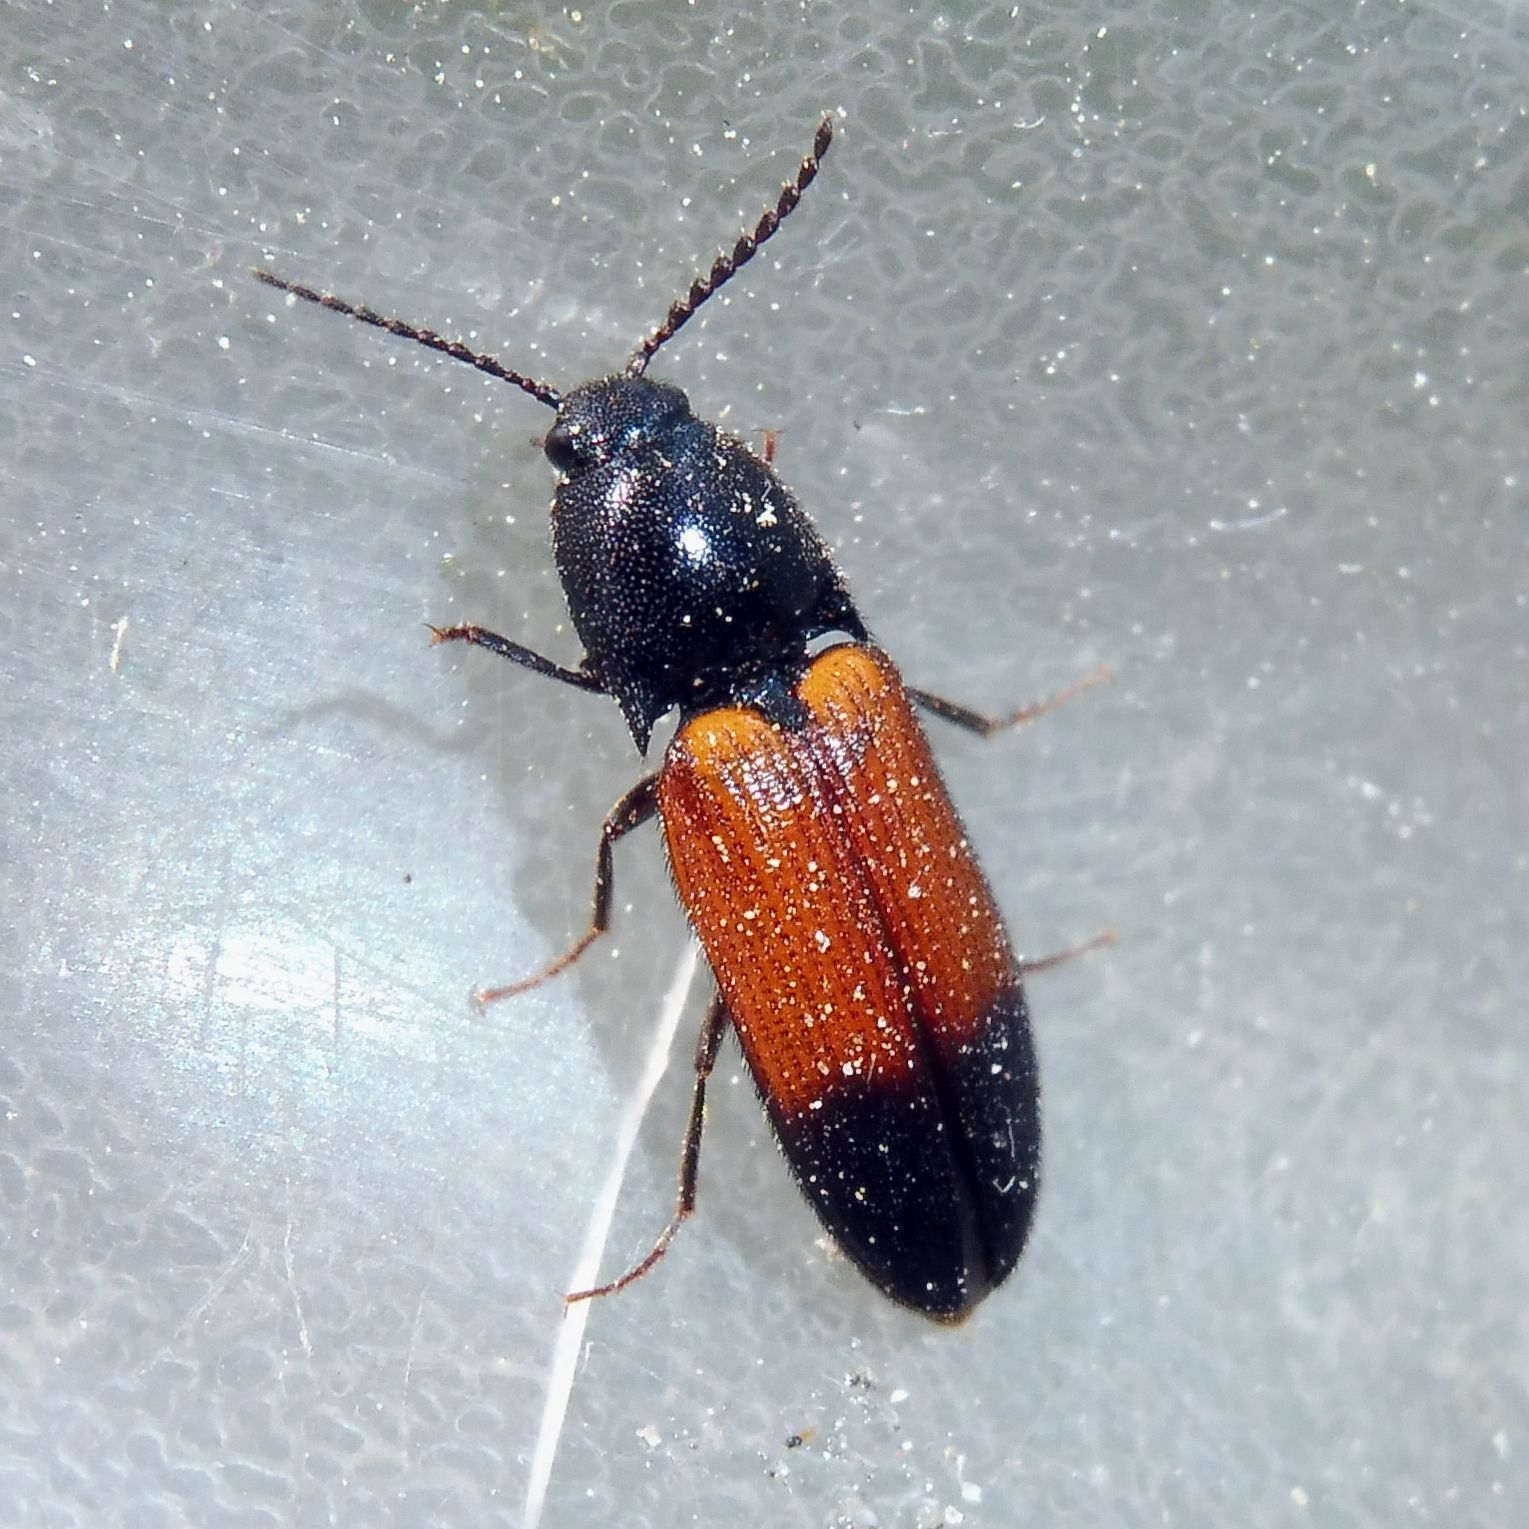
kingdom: Animalia
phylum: Arthropoda
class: Insecta
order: Coleoptera
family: Elateridae
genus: Ampedus
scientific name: Ampedus balteatus
